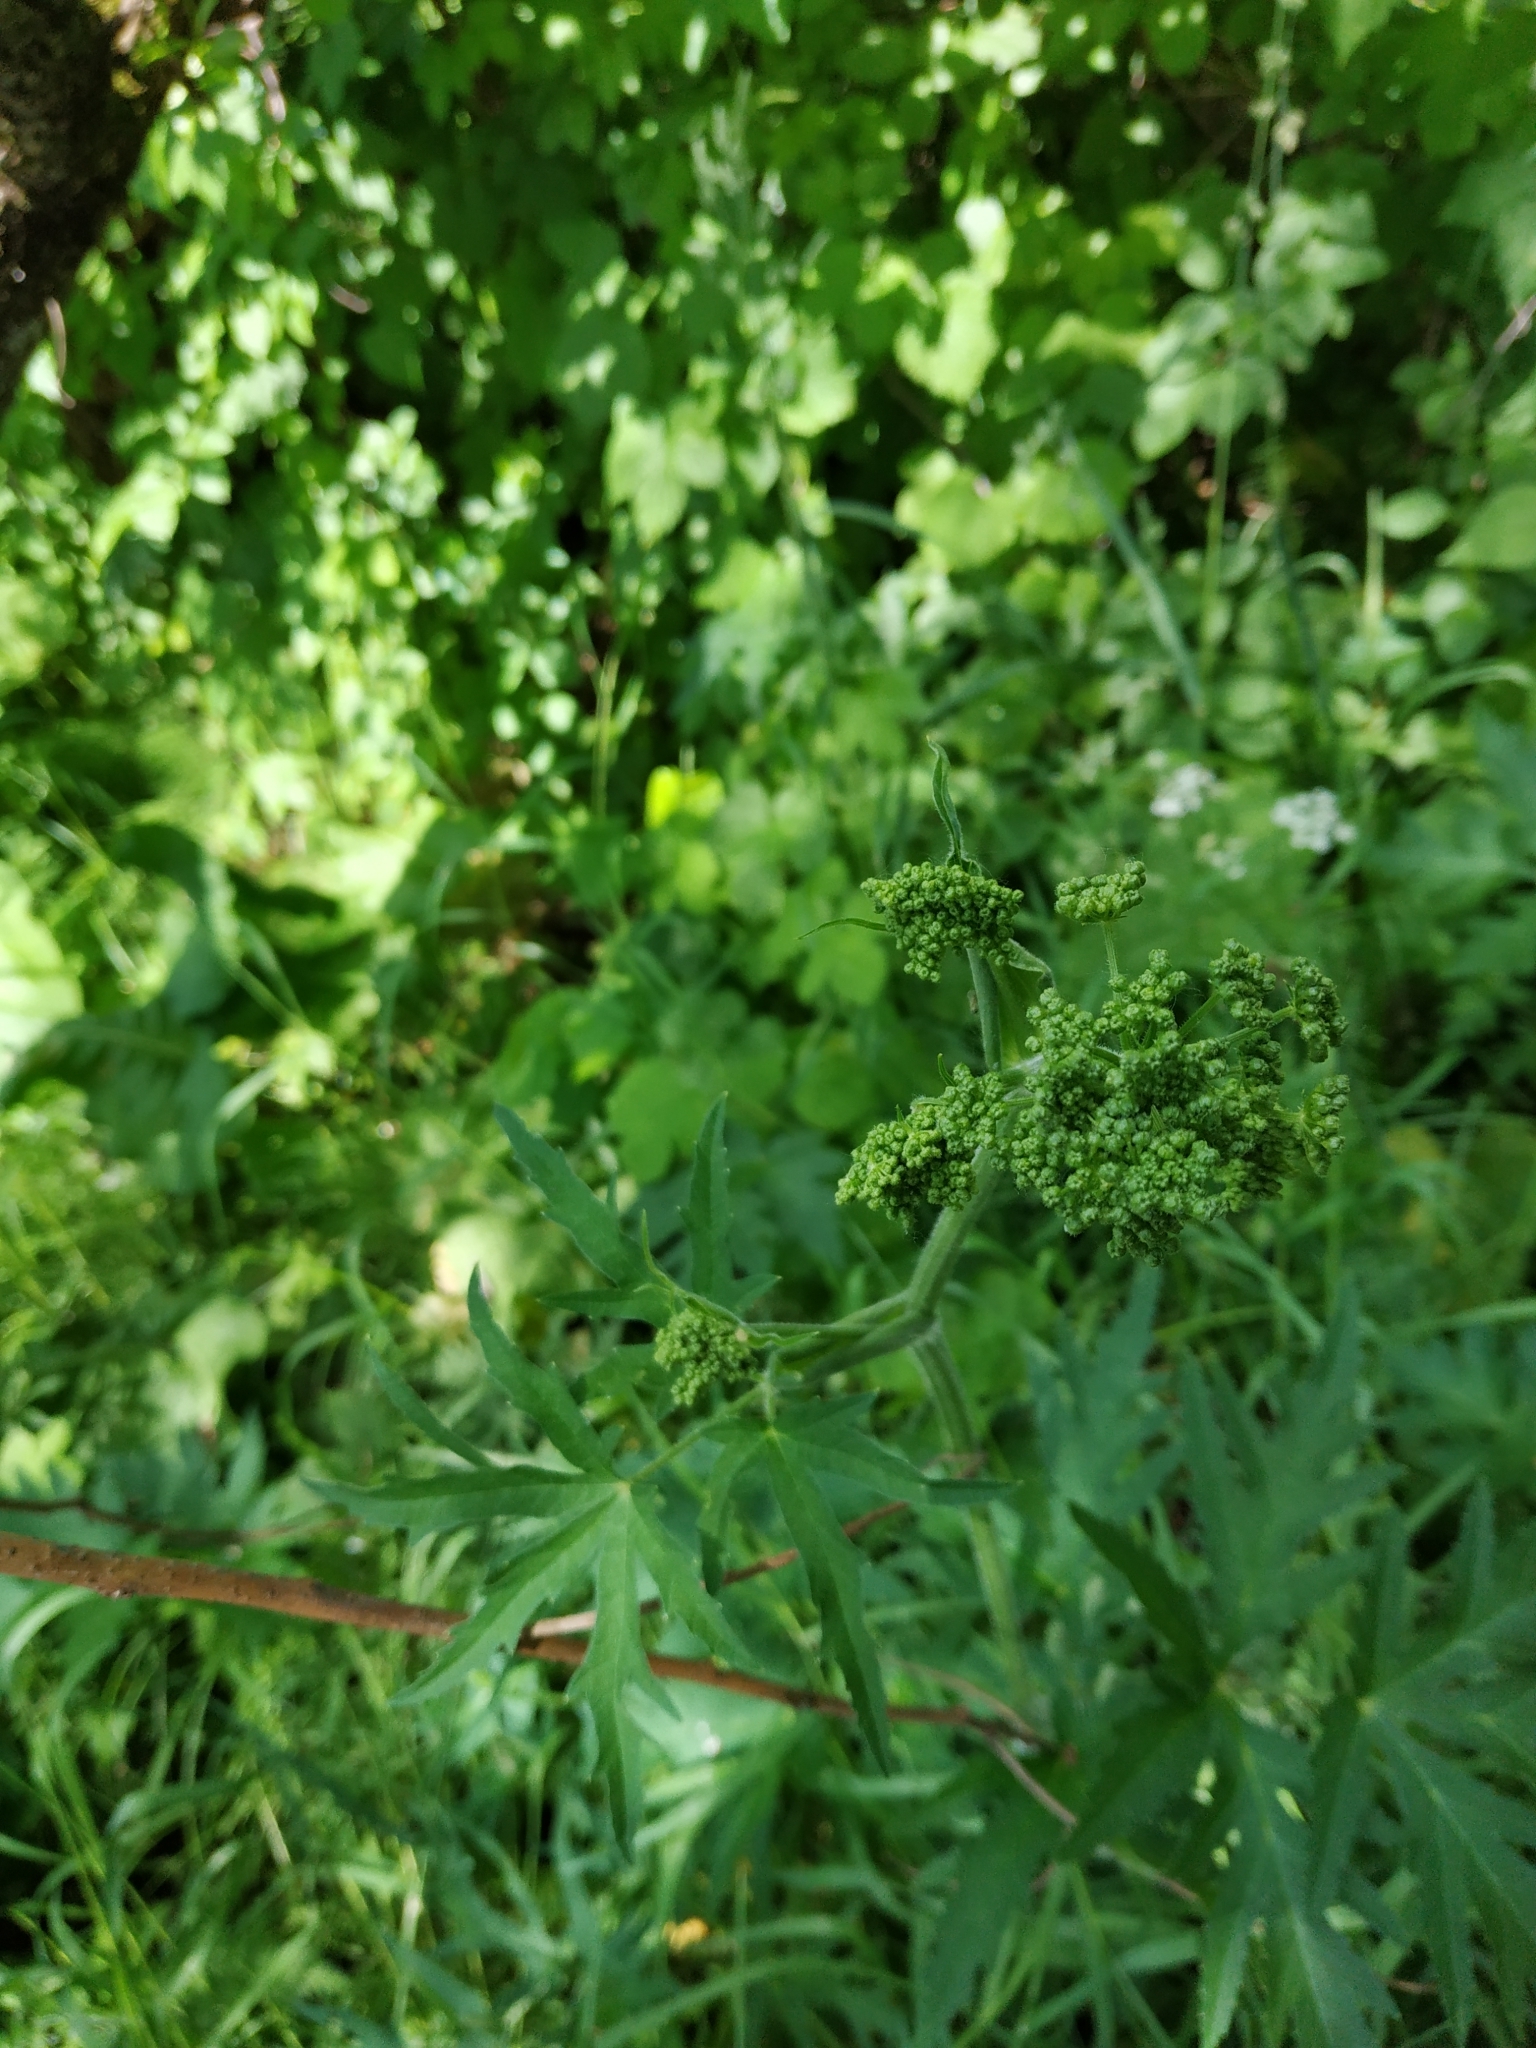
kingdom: Plantae
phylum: Tracheophyta
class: Magnoliopsida
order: Apiales
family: Apiaceae
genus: Heracleum
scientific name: Heracleum sphondylium
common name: Hogweed
